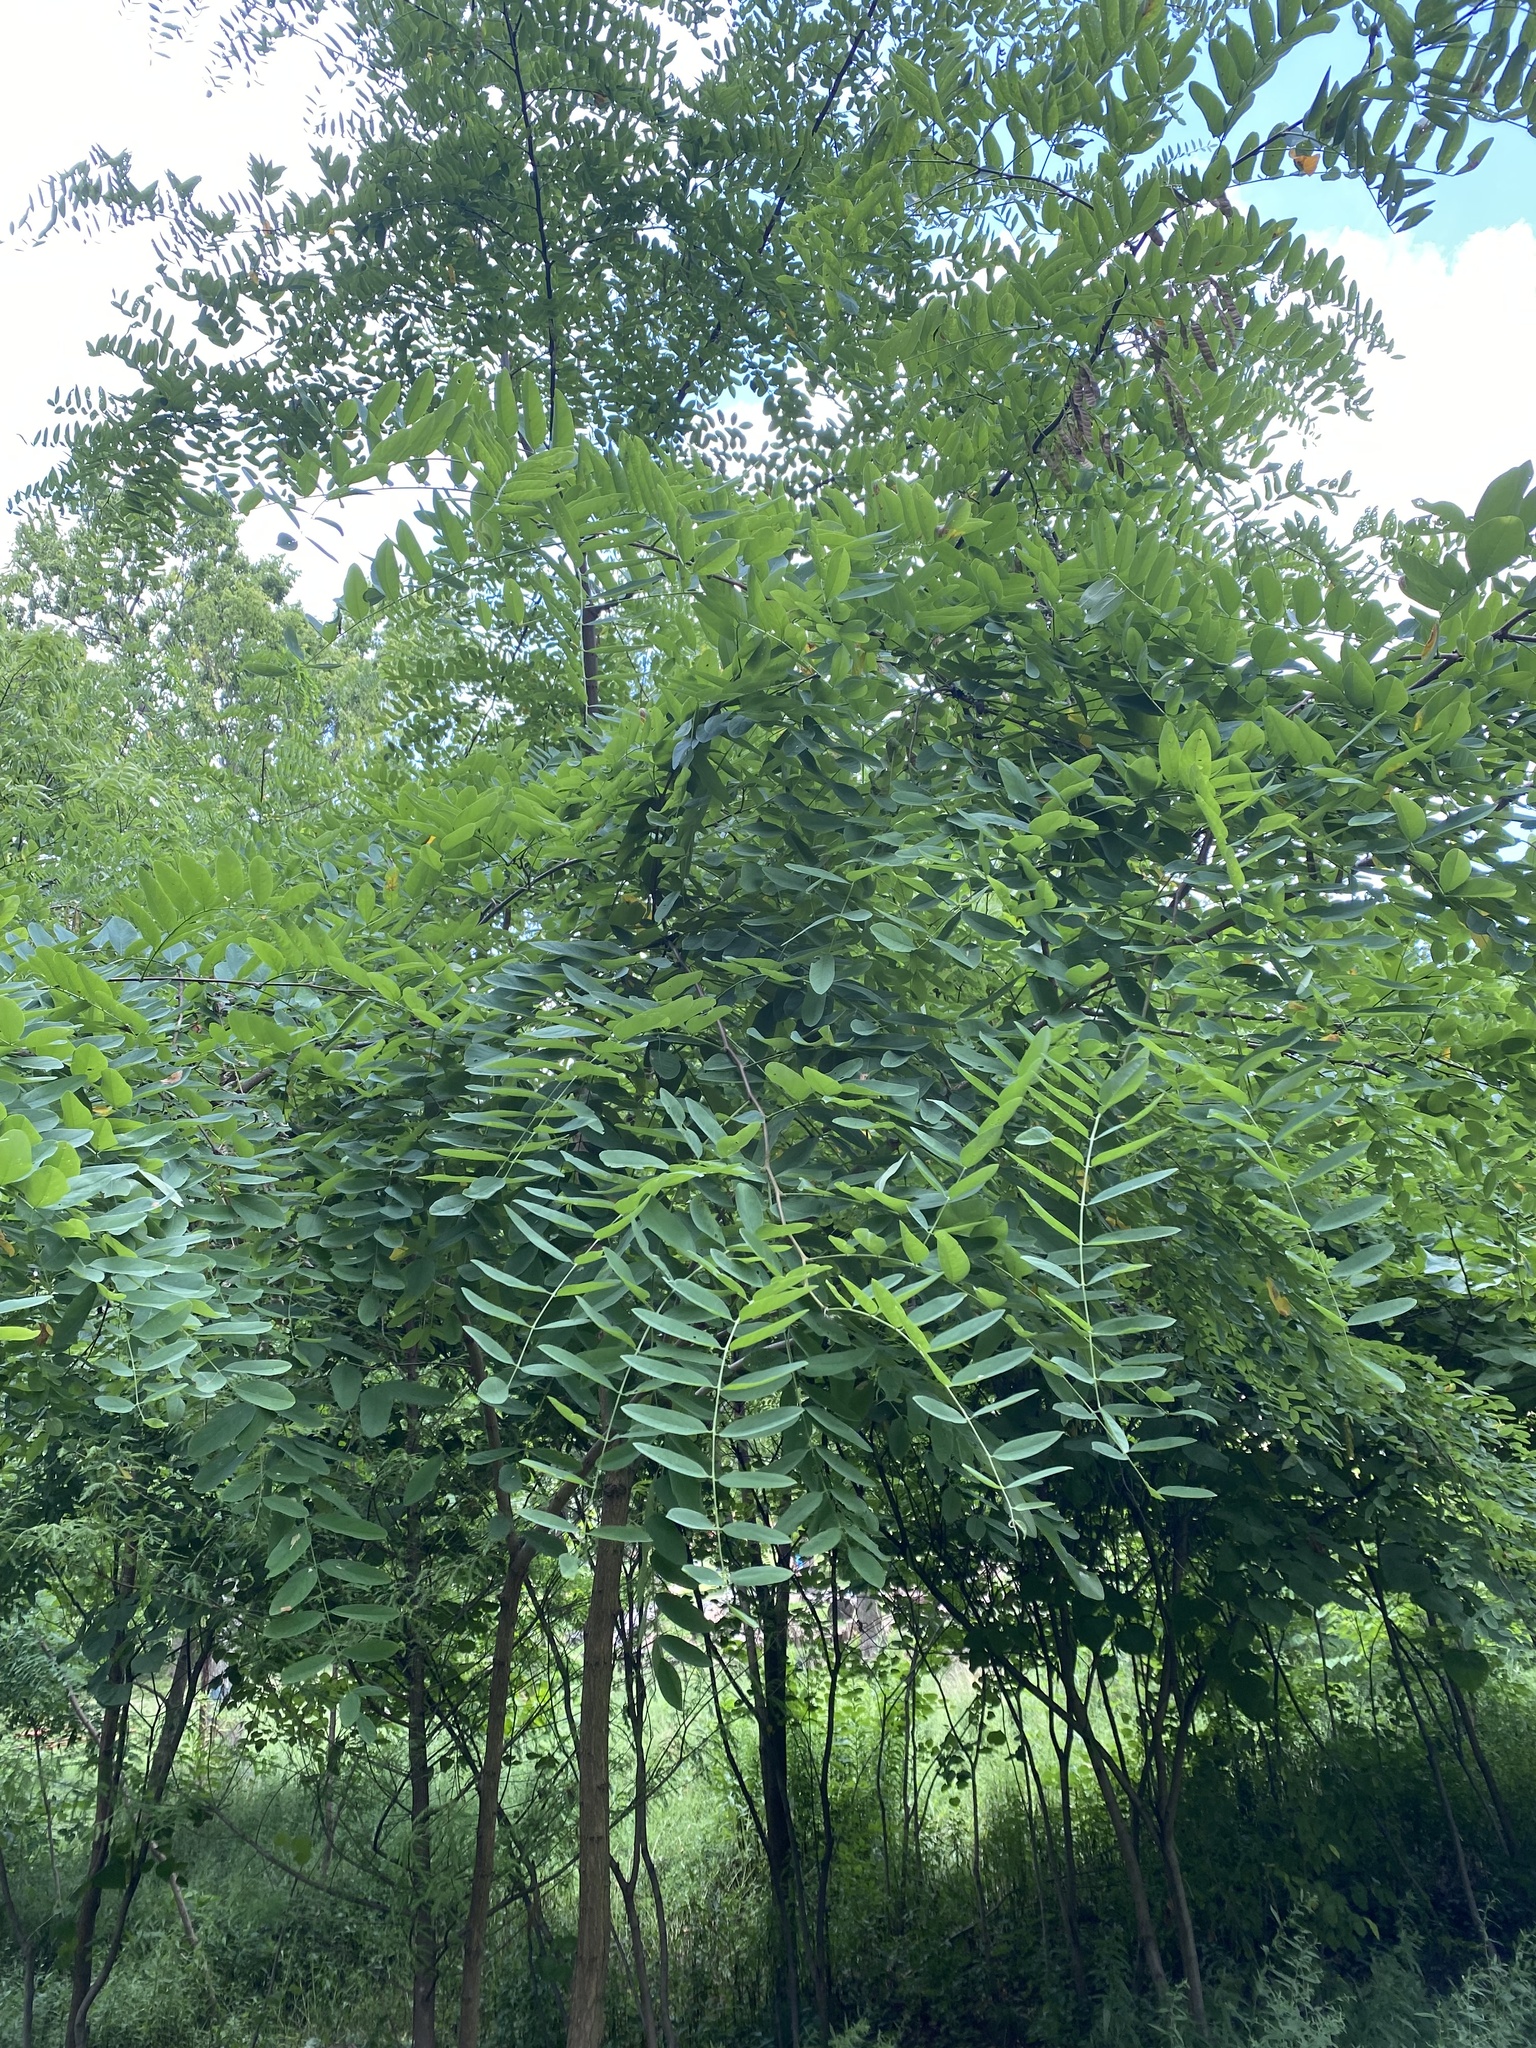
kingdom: Plantae
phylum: Tracheophyta
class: Magnoliopsida
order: Fabales
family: Fabaceae
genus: Robinia
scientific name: Robinia pseudoacacia
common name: Black locust
